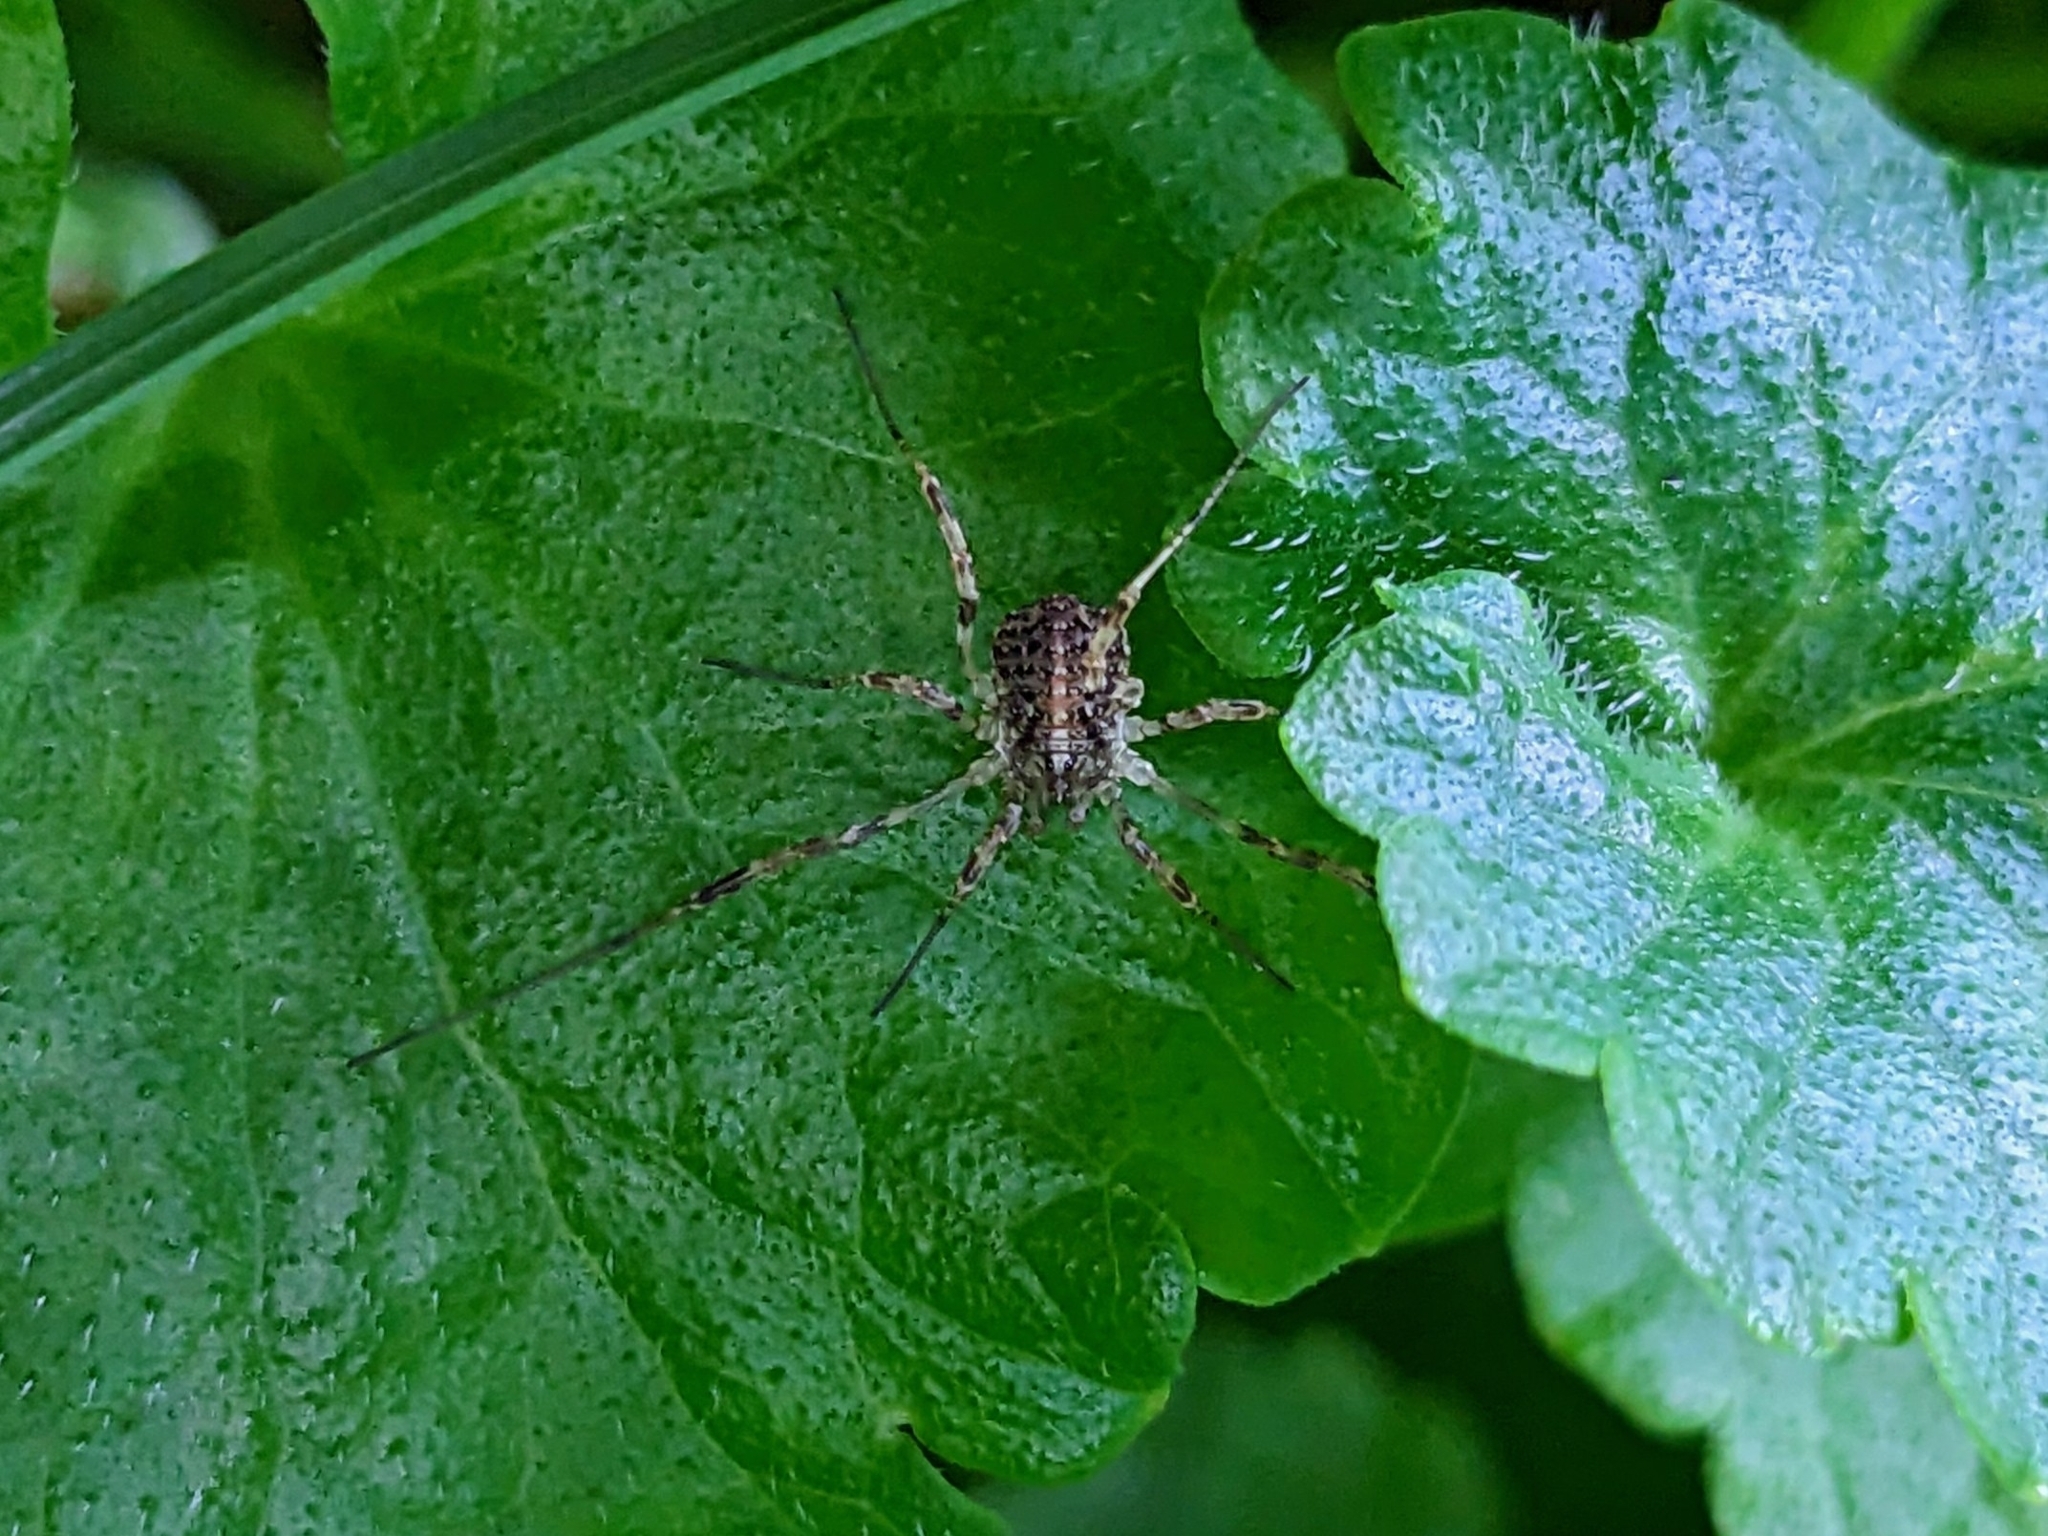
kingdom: Animalia
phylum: Arthropoda
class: Arachnida
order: Opiliones
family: Phalangiidae
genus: Paroligolophus
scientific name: Paroligolophus agrestis
